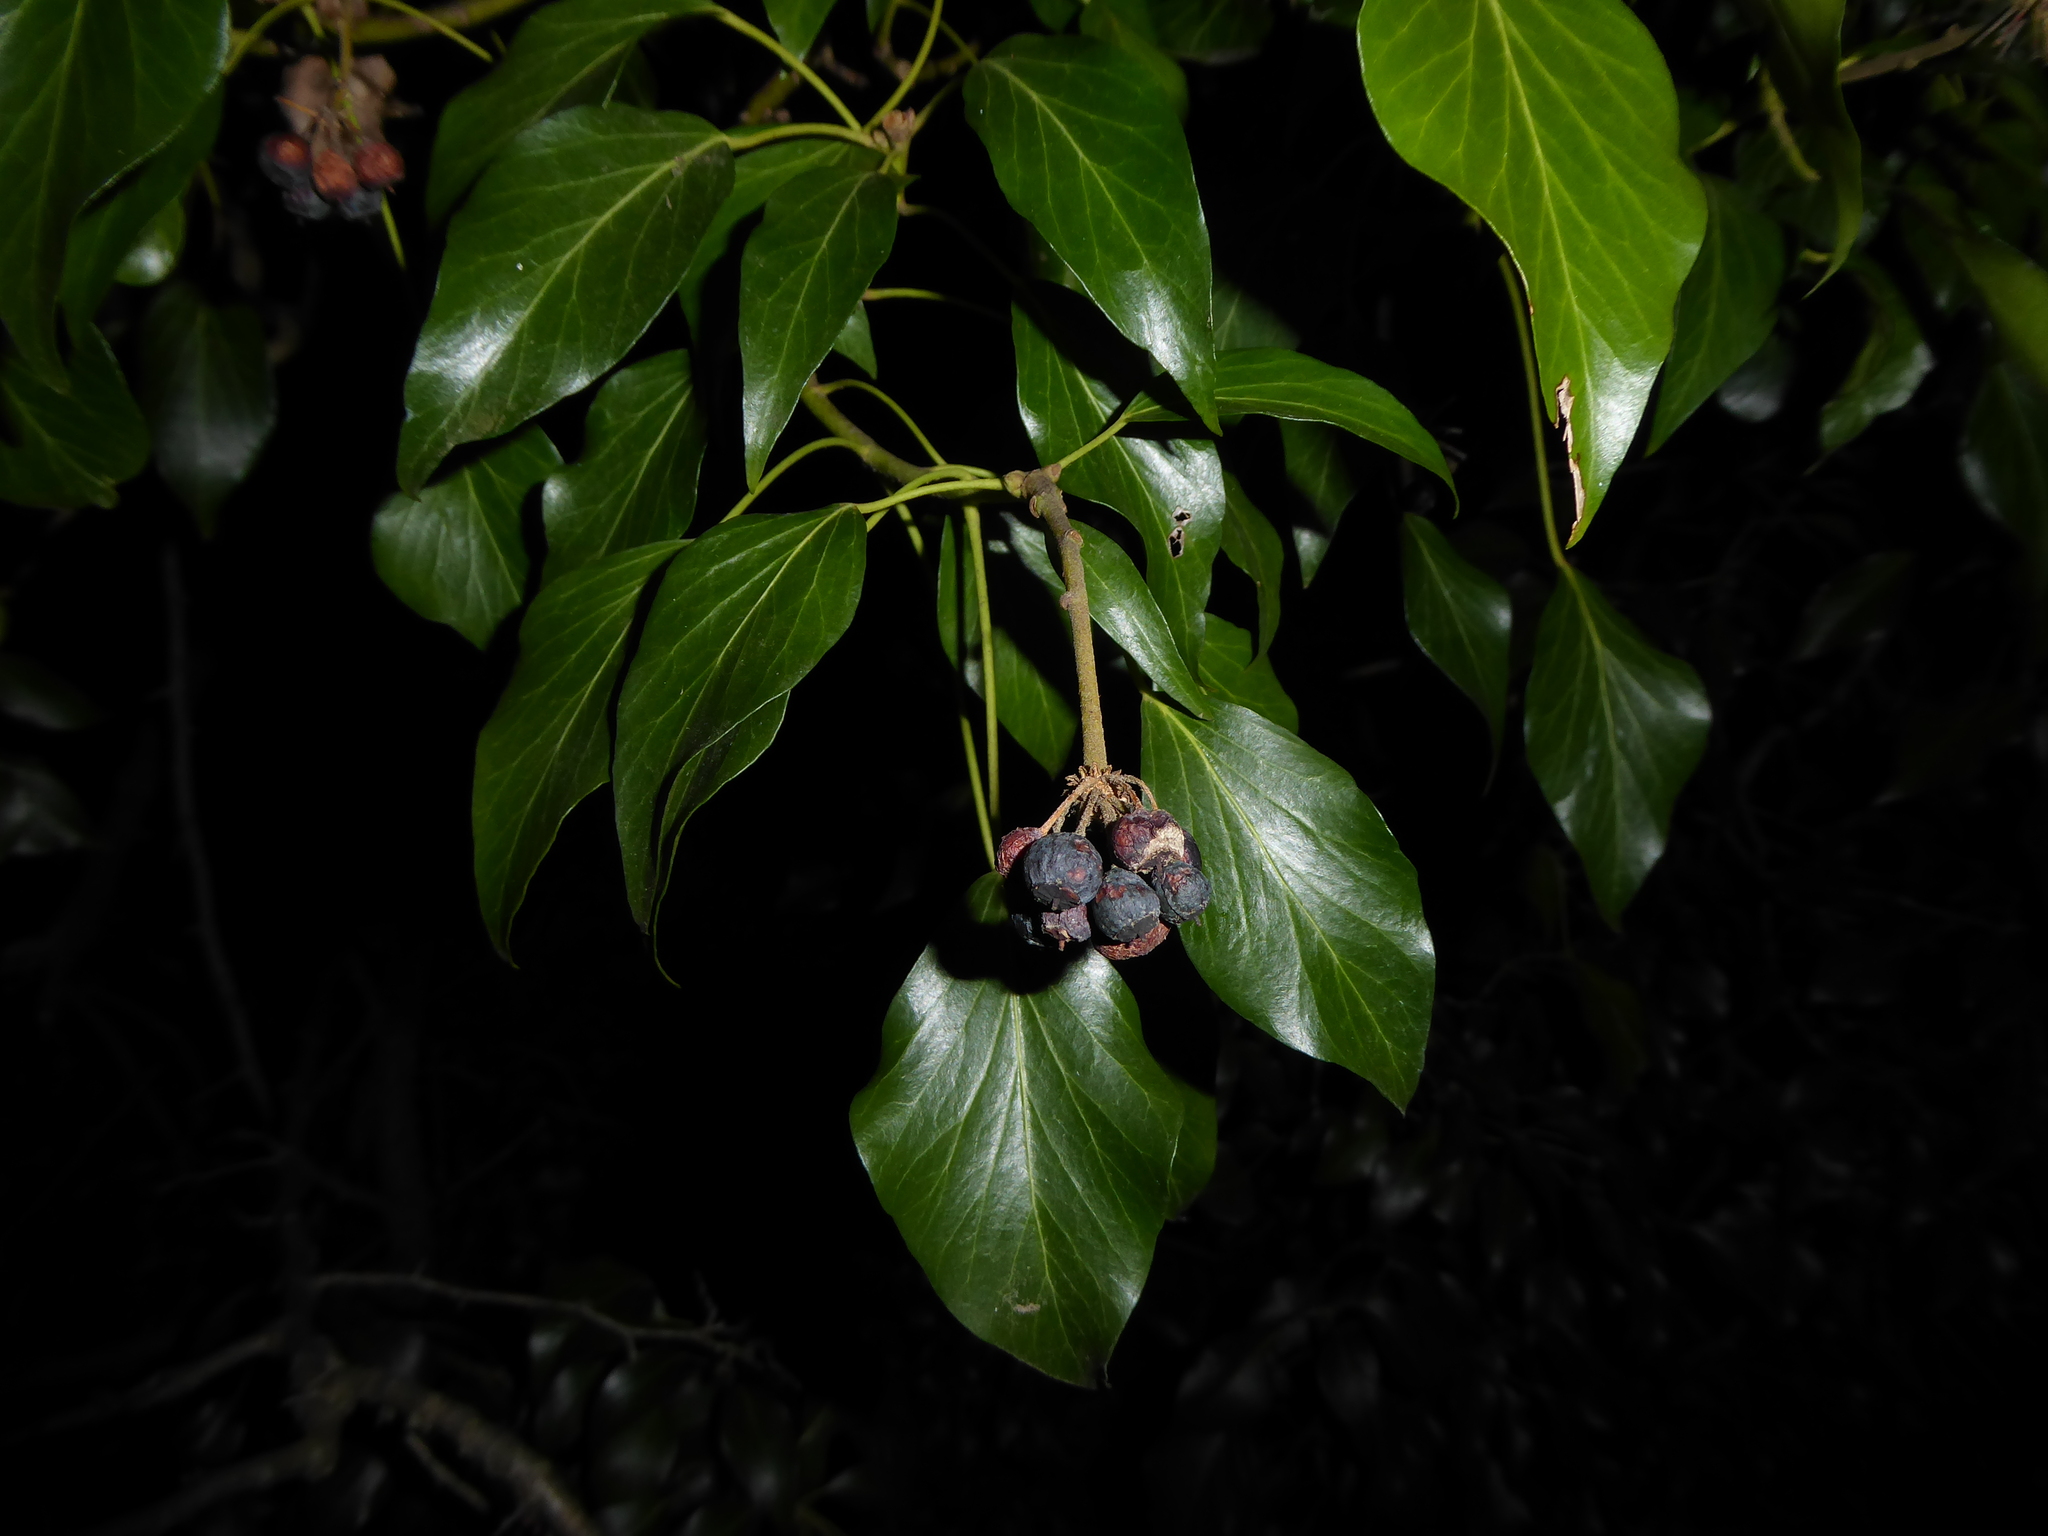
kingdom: Plantae
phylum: Tracheophyta
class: Magnoliopsida
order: Apiales
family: Araliaceae
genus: Hedera
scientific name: Hedera helix
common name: Ivy
